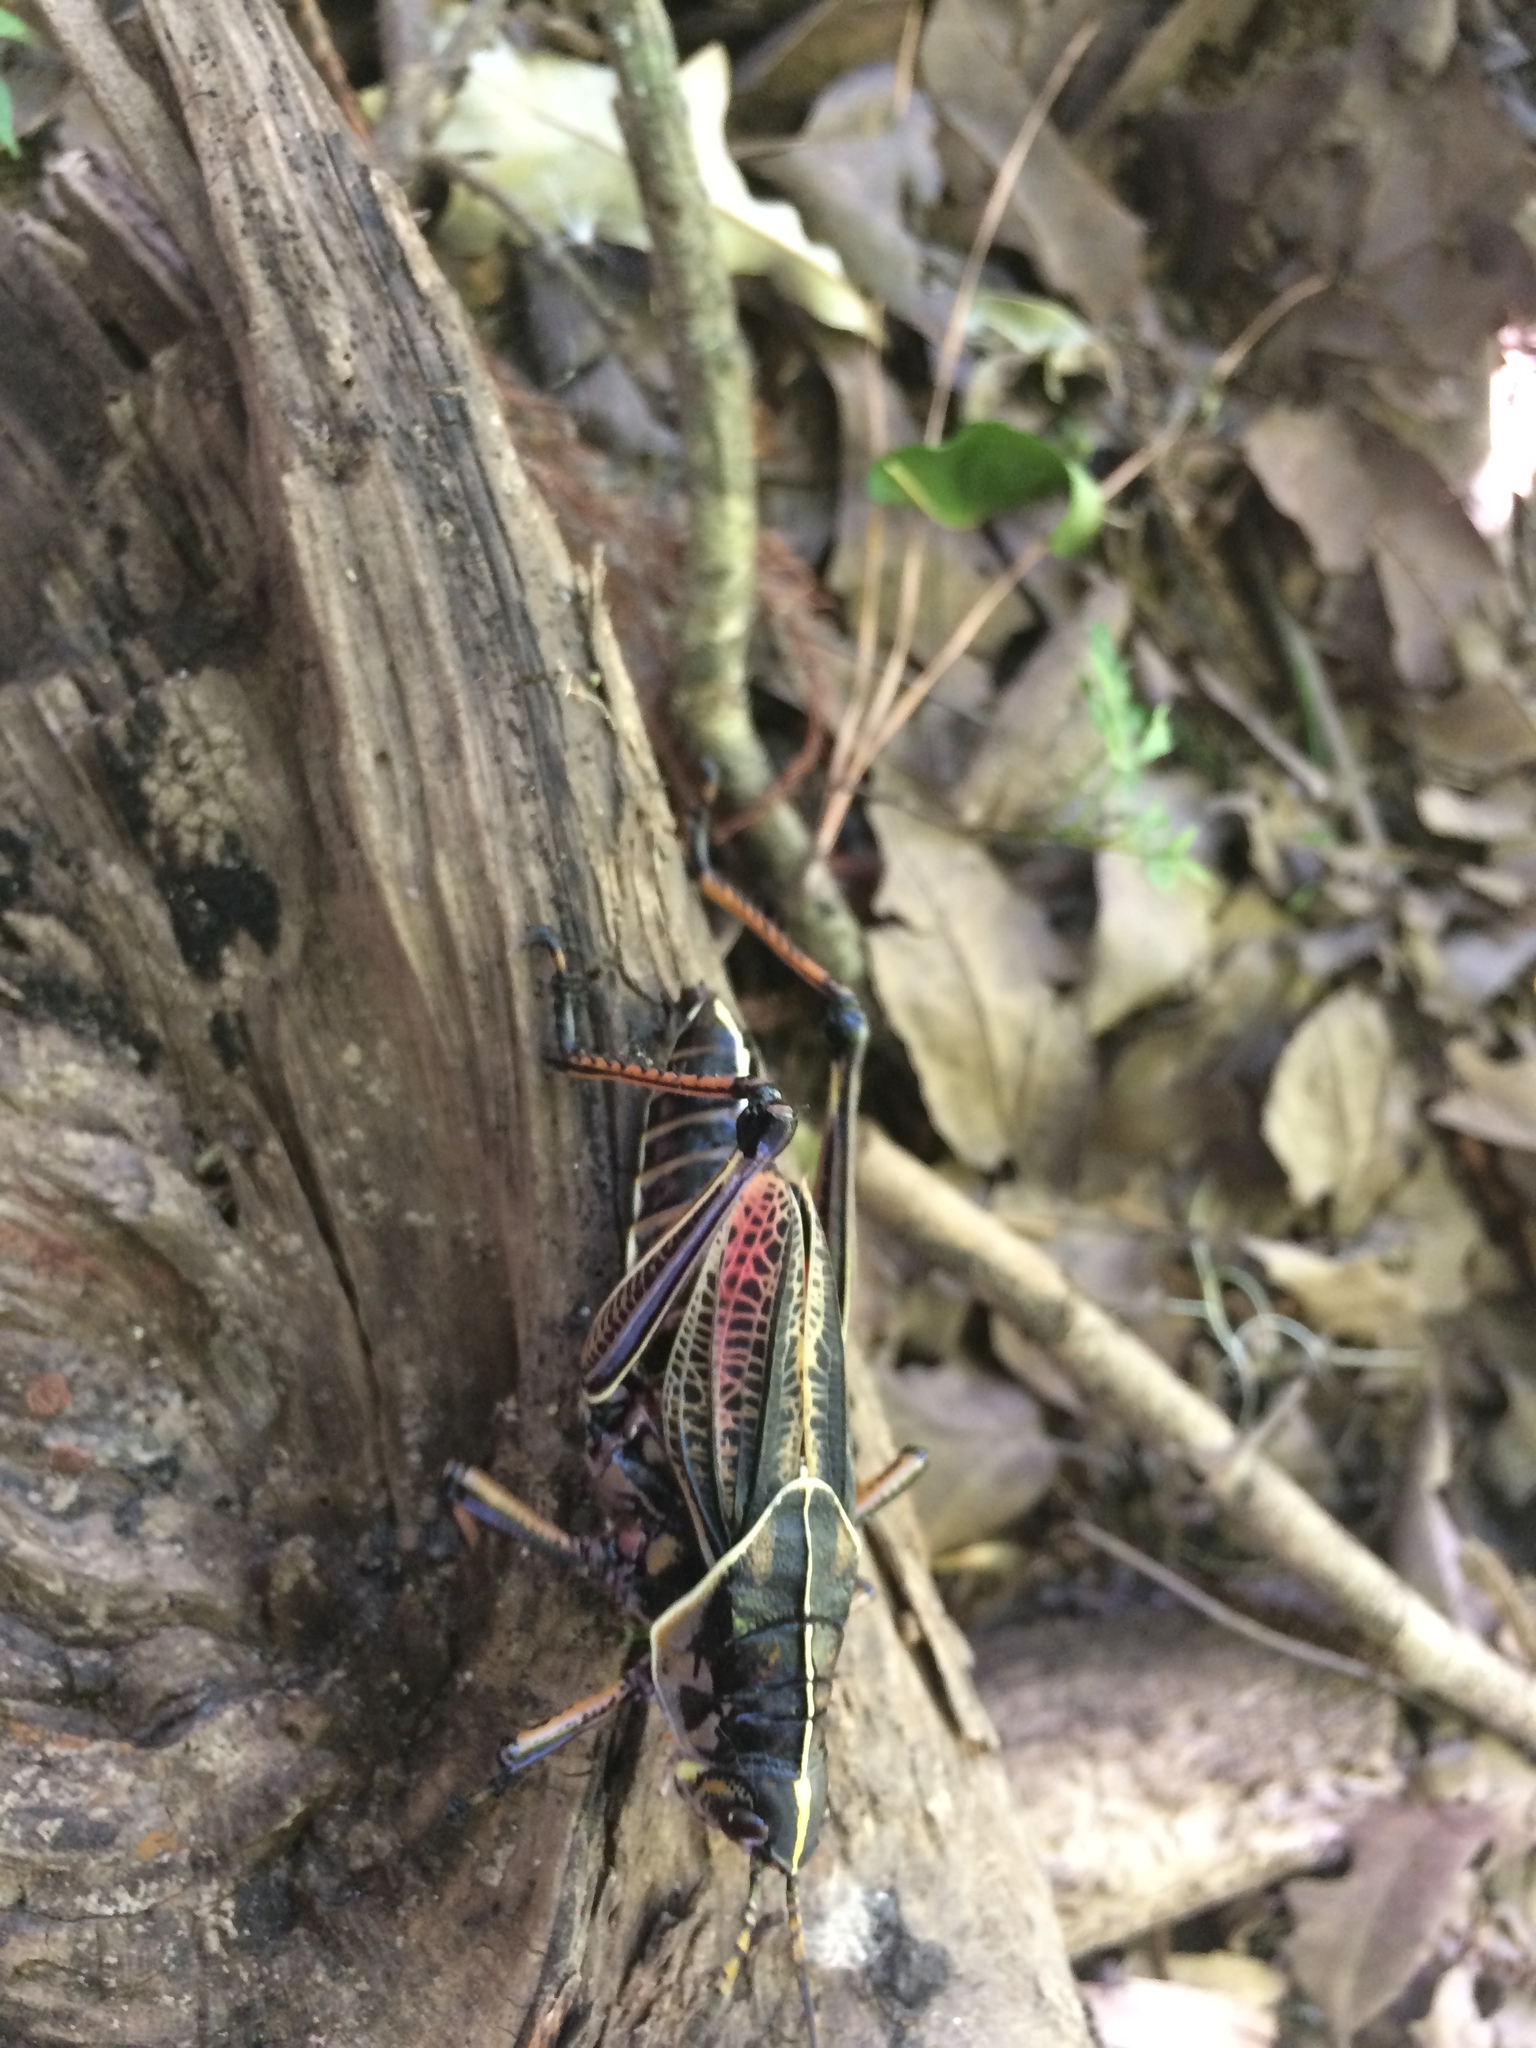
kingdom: Animalia
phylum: Arthropoda
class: Insecta
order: Orthoptera
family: Romaleidae
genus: Romalea
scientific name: Romalea microptera
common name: Eastern lubber grasshopper
